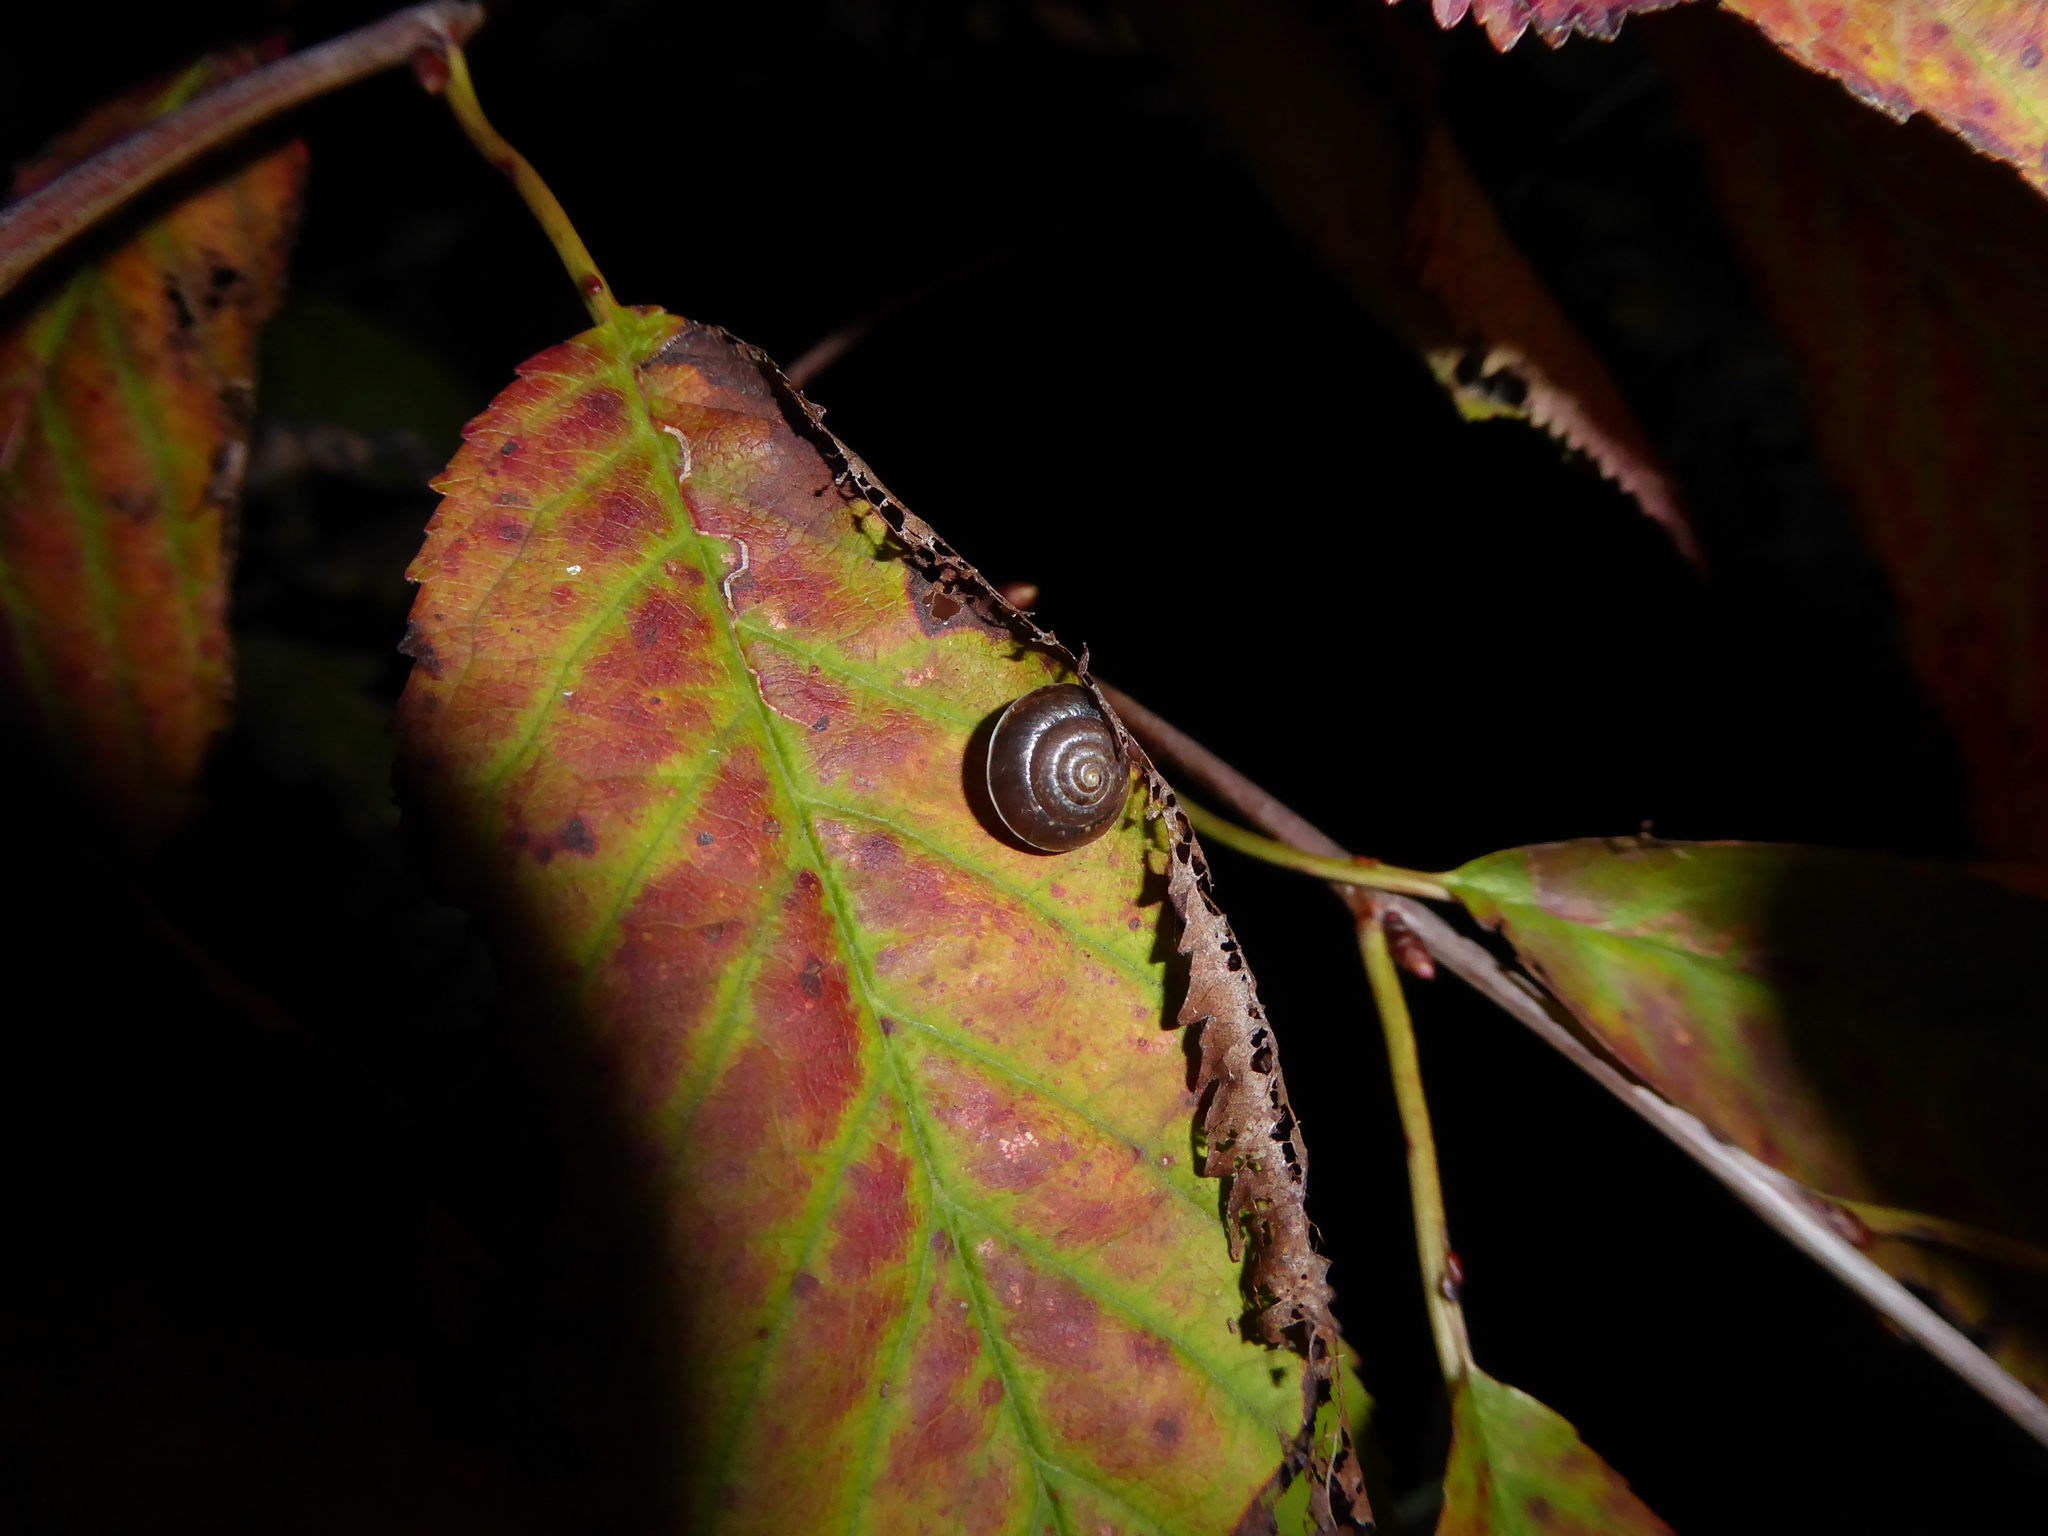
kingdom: Animalia
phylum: Mollusca
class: Gastropoda
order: Stylommatophora
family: Hygromiidae
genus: Hygromia
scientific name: Hygromia cinctella
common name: Girdled snail
